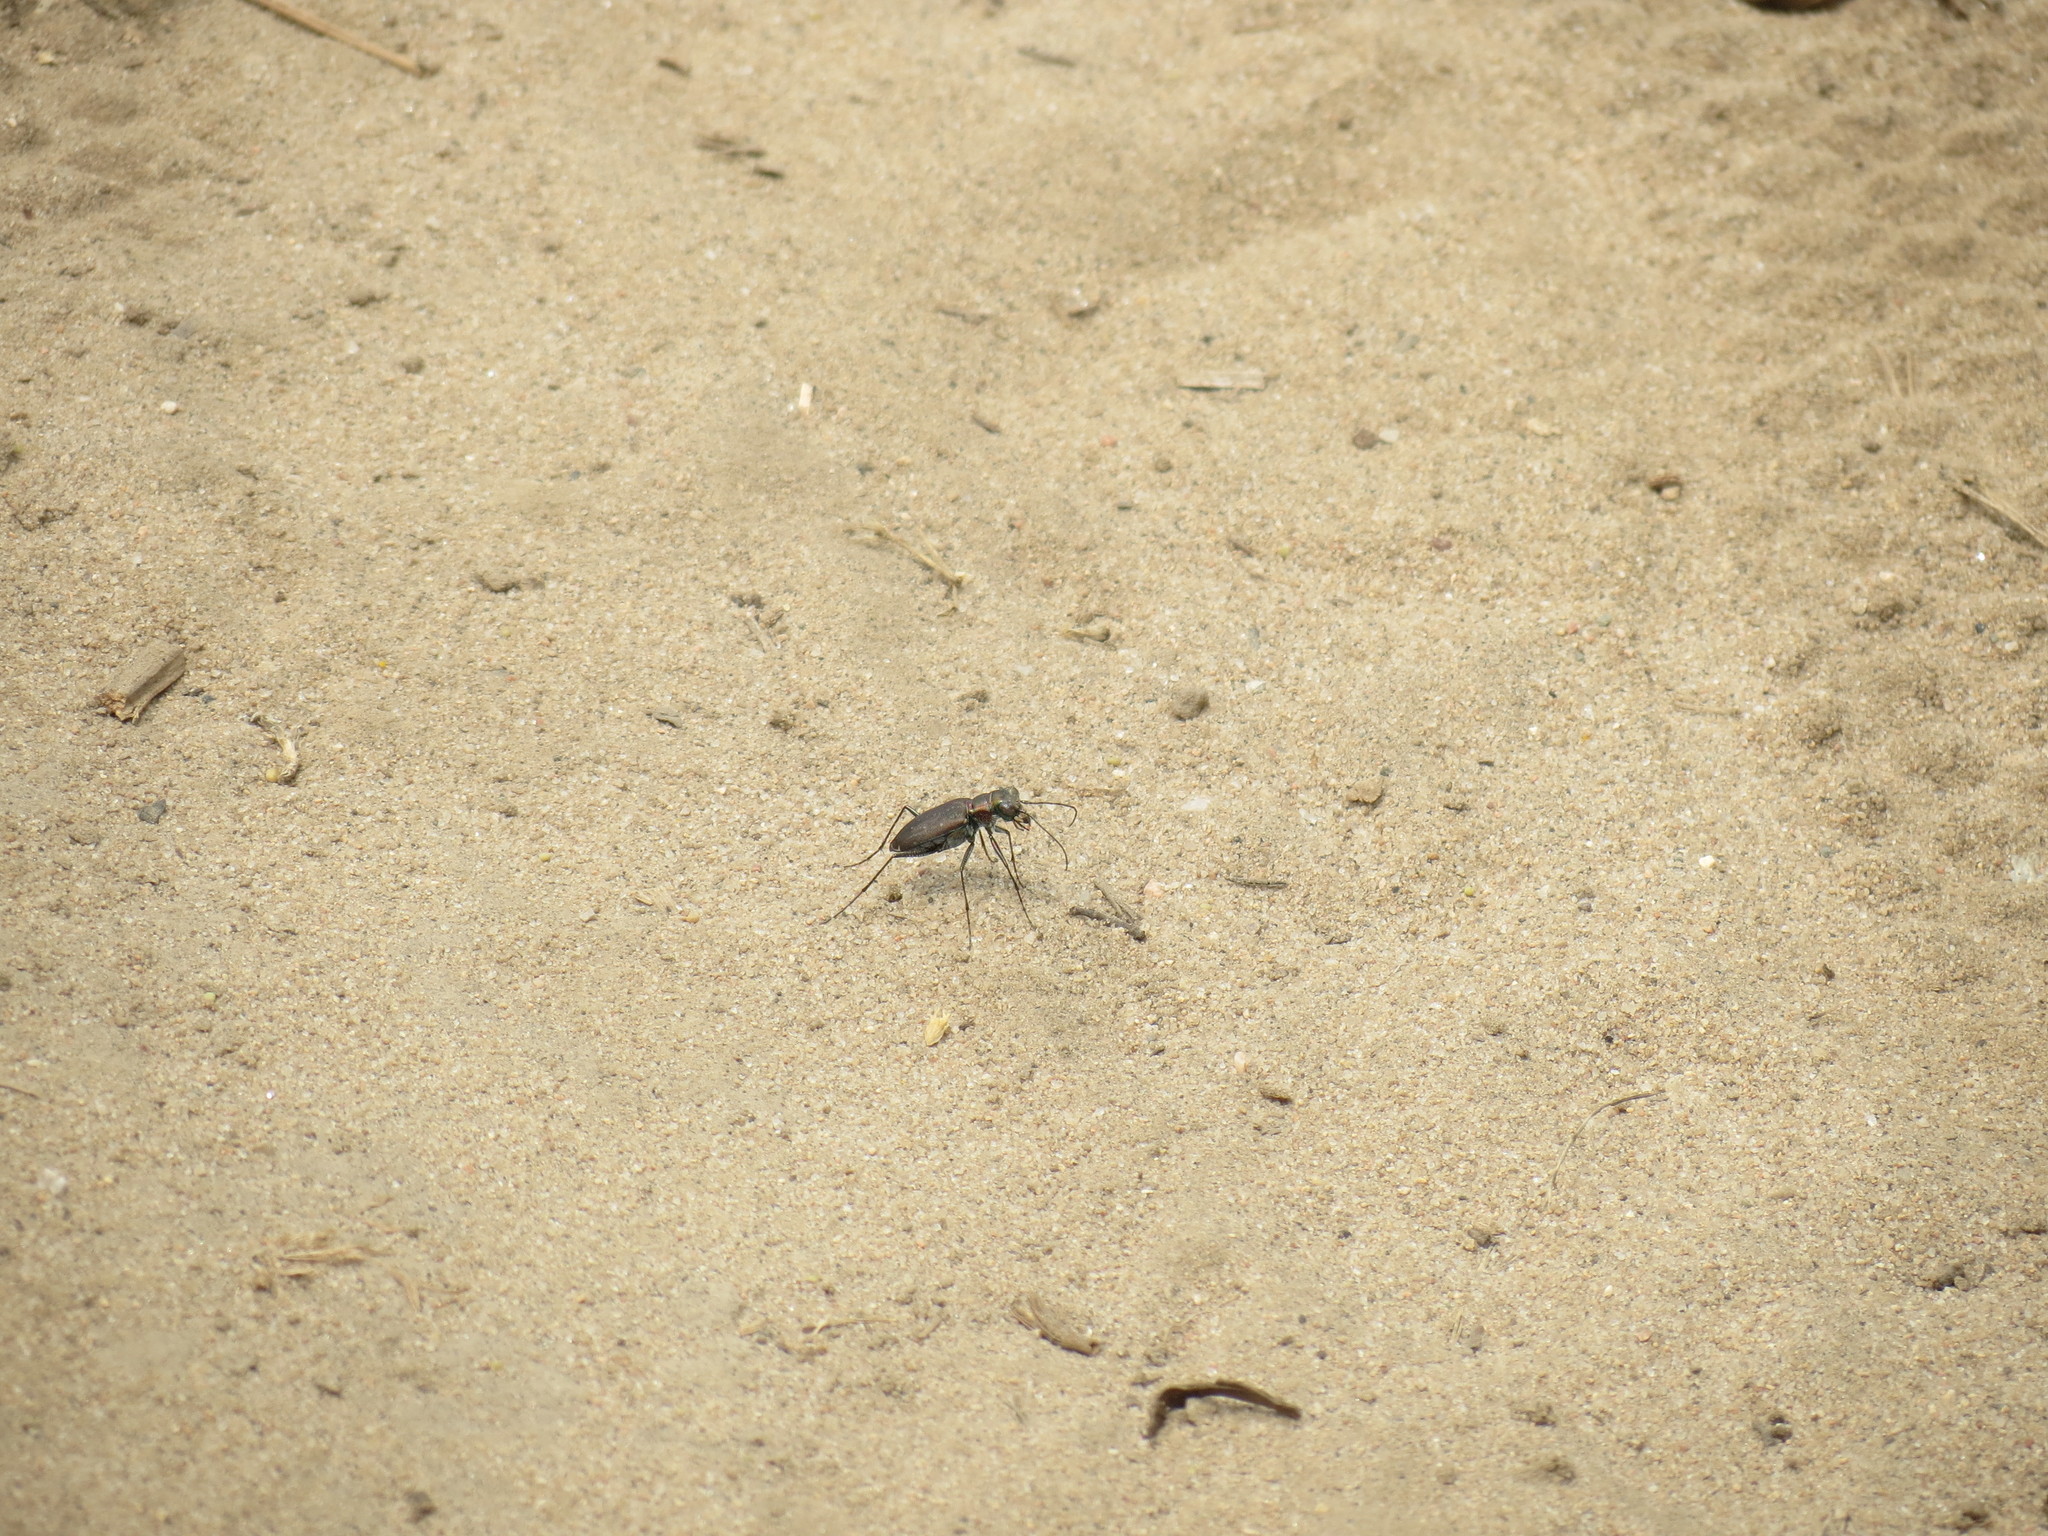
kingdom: Animalia
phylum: Arthropoda
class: Insecta
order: Coleoptera
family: Carabidae
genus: Cicindela
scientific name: Cicindela punctulata
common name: Punctured tiger beetle
